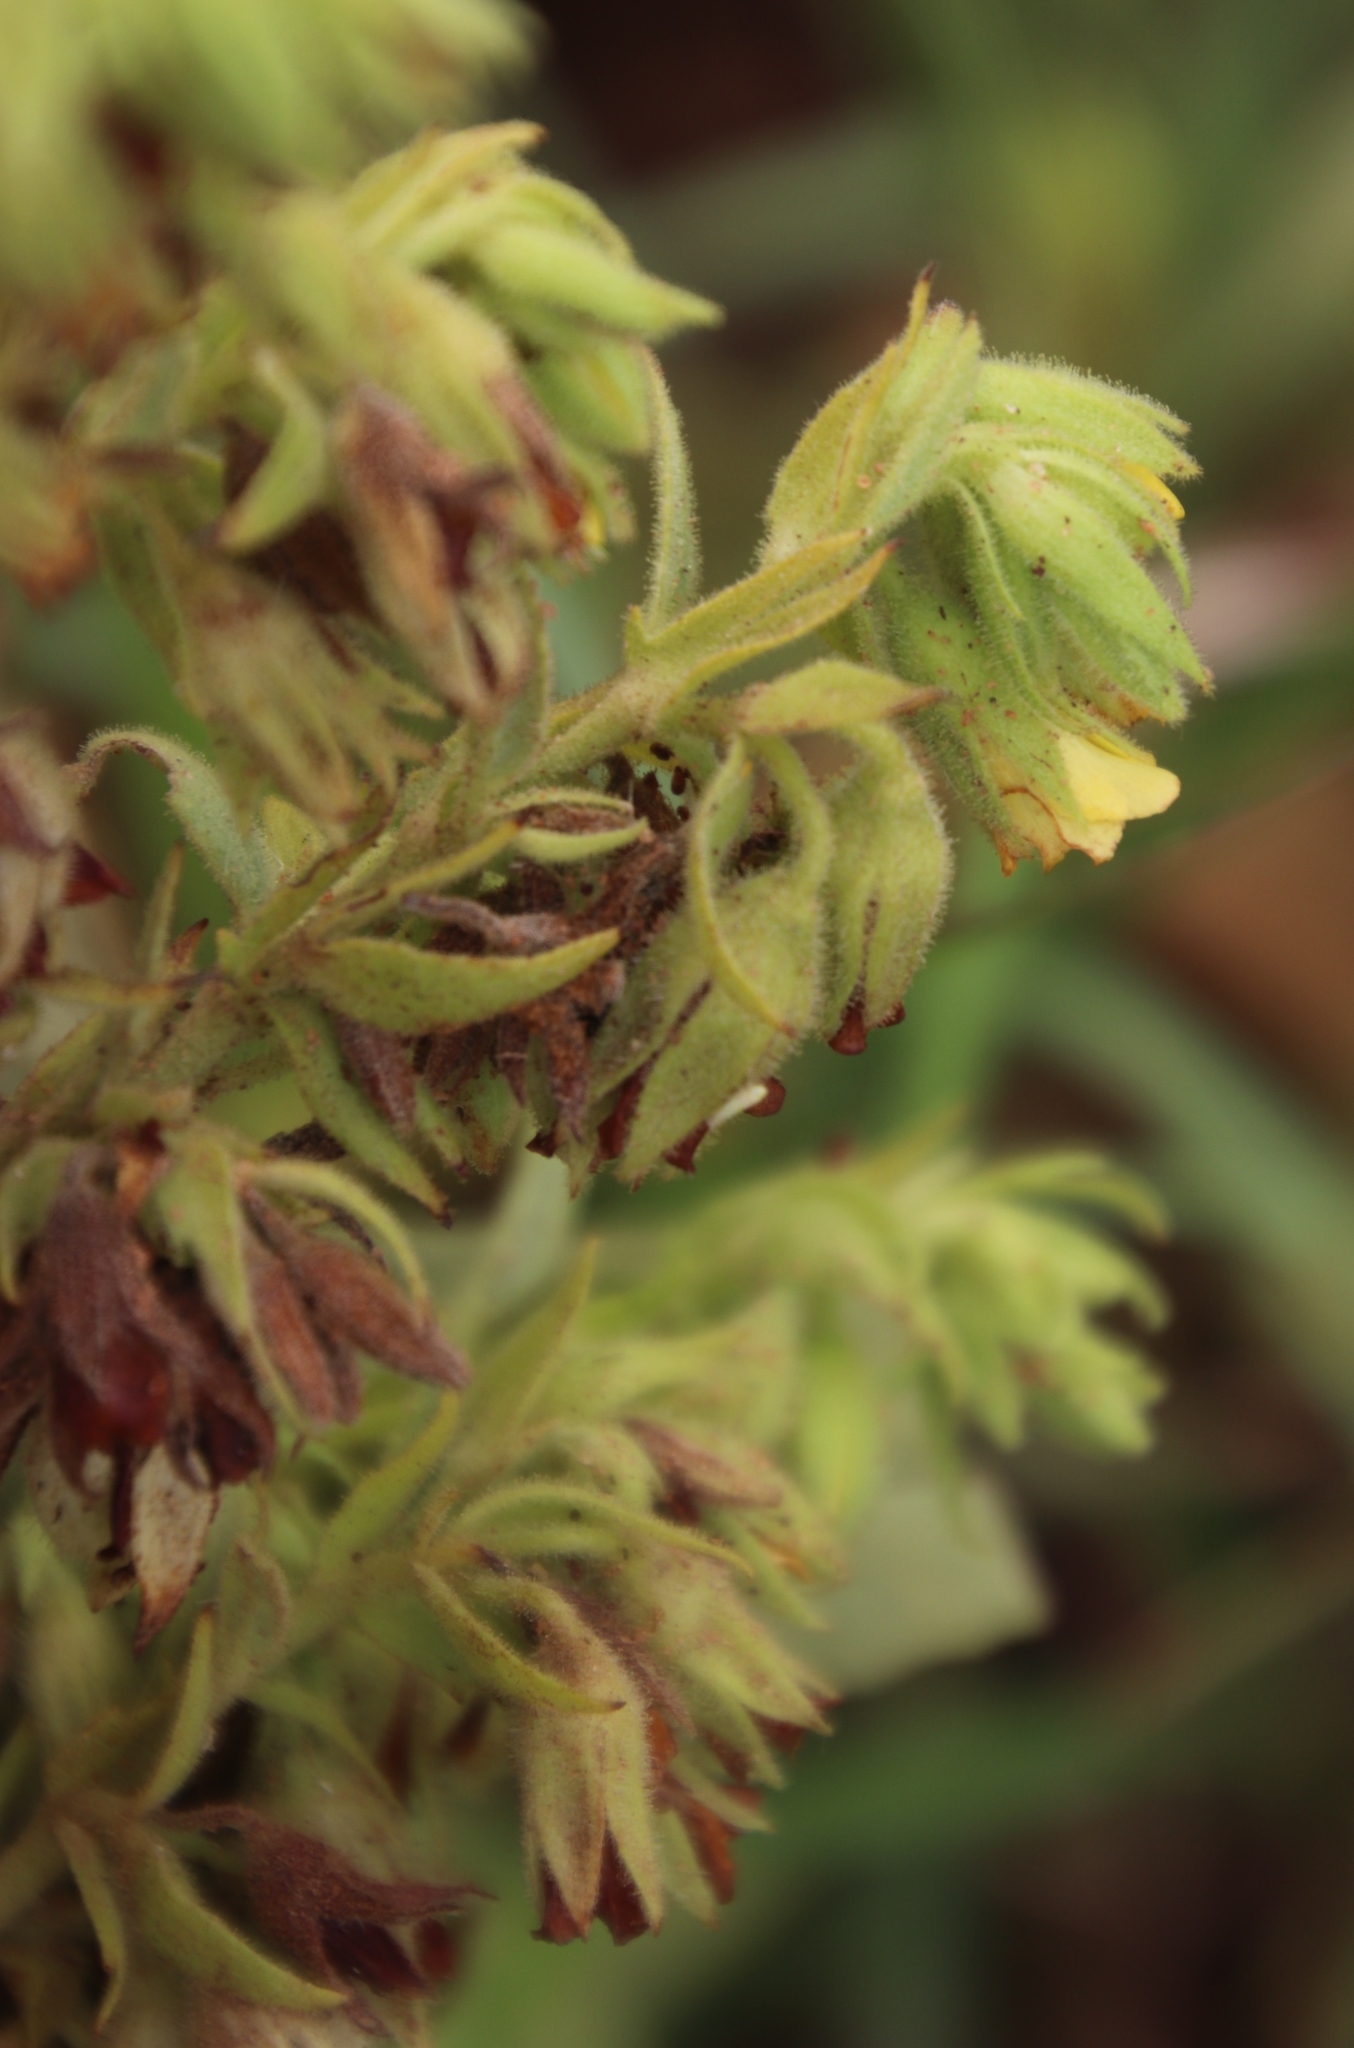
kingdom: Plantae
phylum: Tracheophyta
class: Magnoliopsida
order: Malvales
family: Malvaceae
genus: Hermannia
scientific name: Hermannia montana
